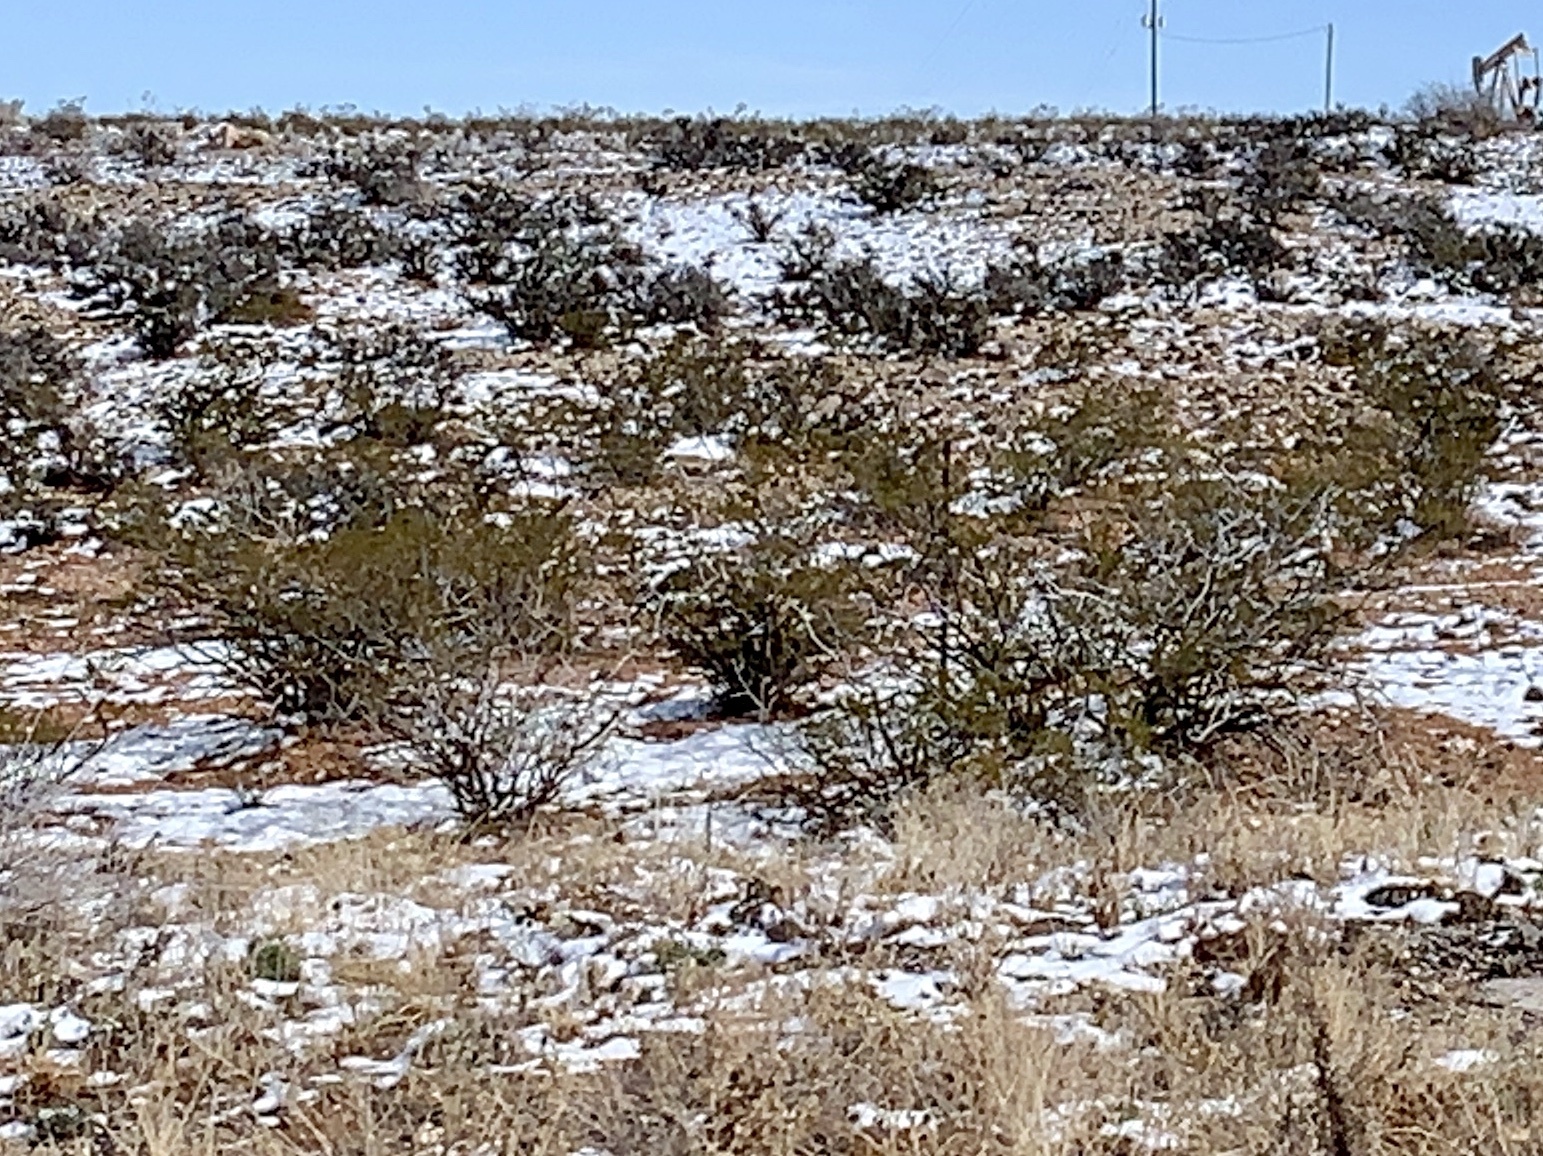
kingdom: Plantae
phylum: Tracheophyta
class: Magnoliopsida
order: Zygophyllales
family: Zygophyllaceae
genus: Larrea
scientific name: Larrea tridentata
